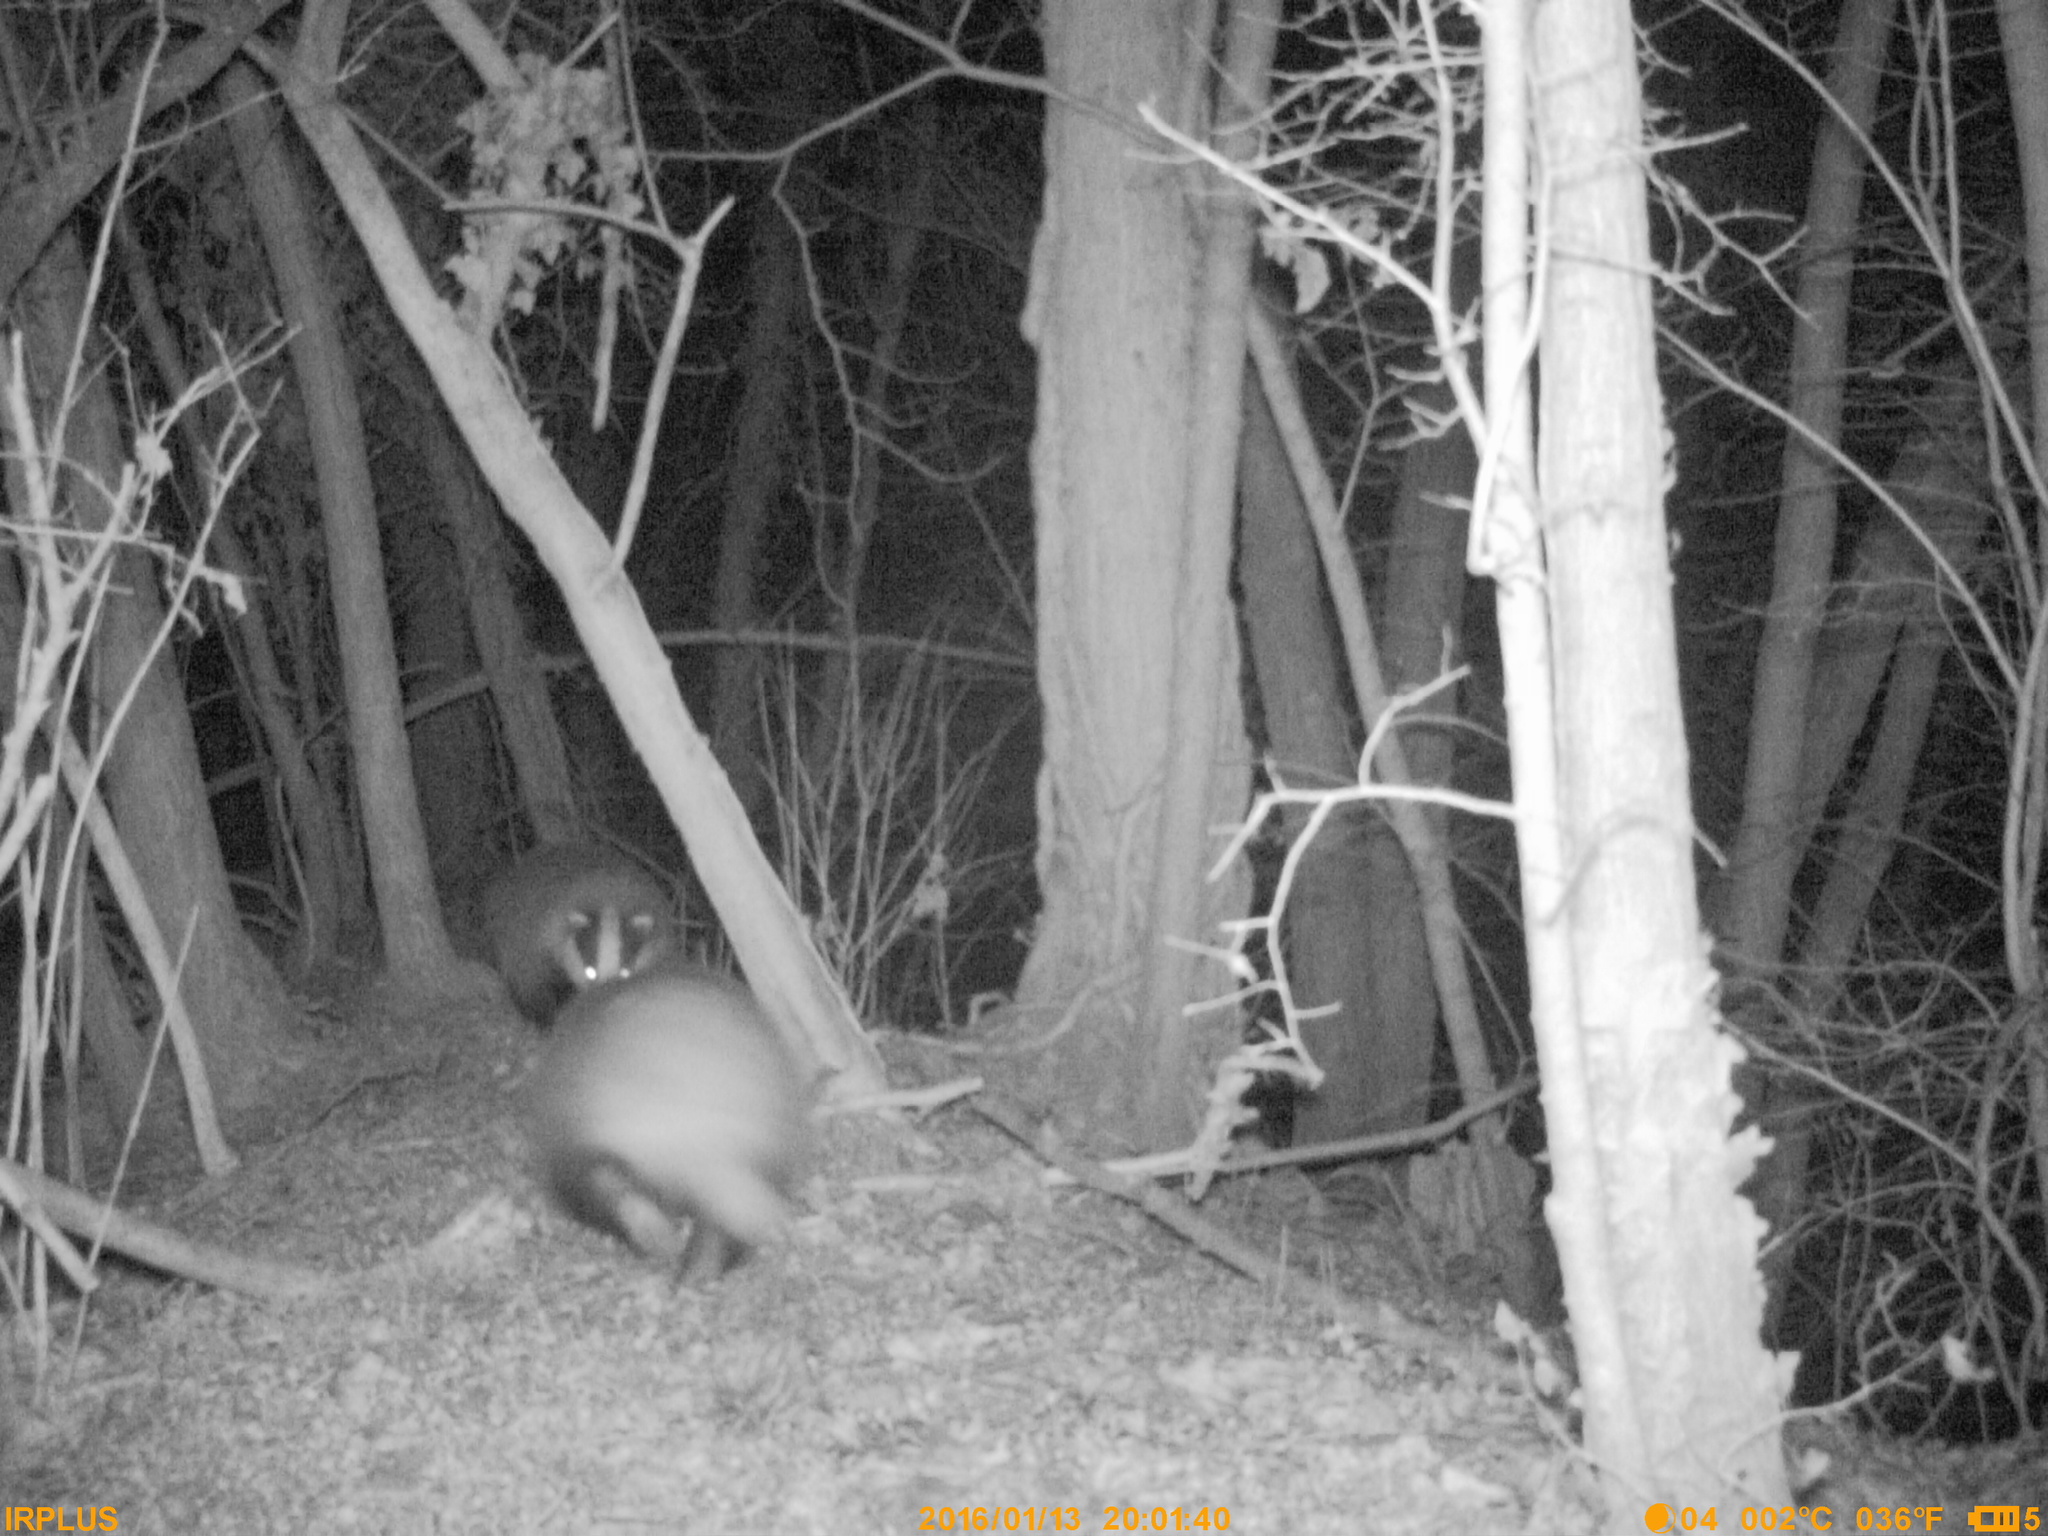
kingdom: Animalia
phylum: Chordata
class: Mammalia
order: Carnivora
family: Mustelidae
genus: Meles
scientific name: Meles meles
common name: Eurasian badger
